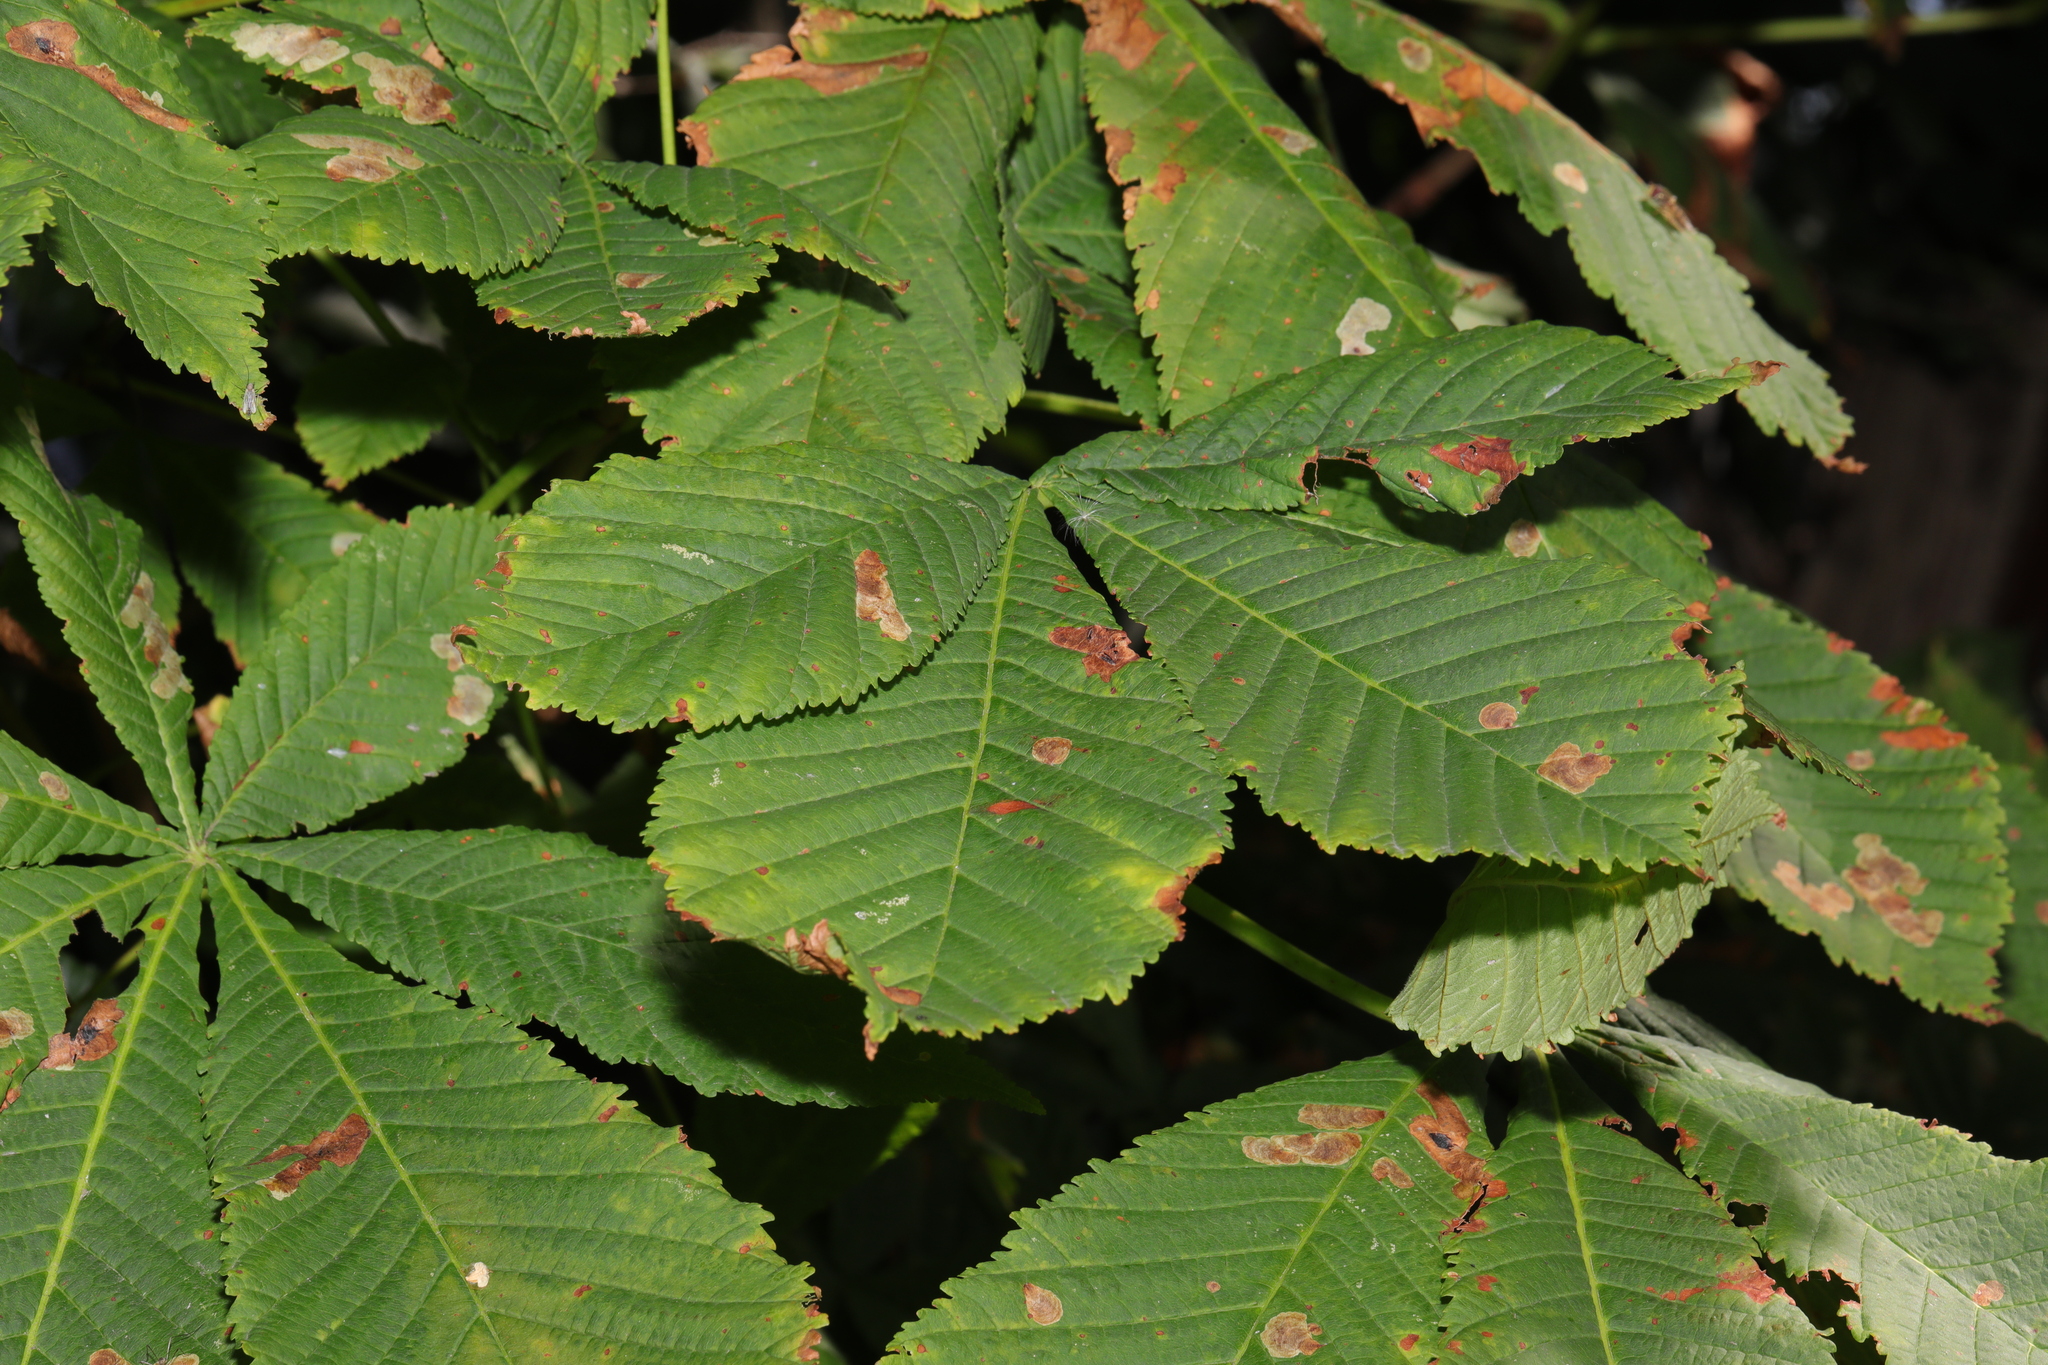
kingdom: Plantae
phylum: Tracheophyta
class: Magnoliopsida
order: Sapindales
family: Sapindaceae
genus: Aesculus
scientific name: Aesculus hippocastanum
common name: Horse-chestnut
